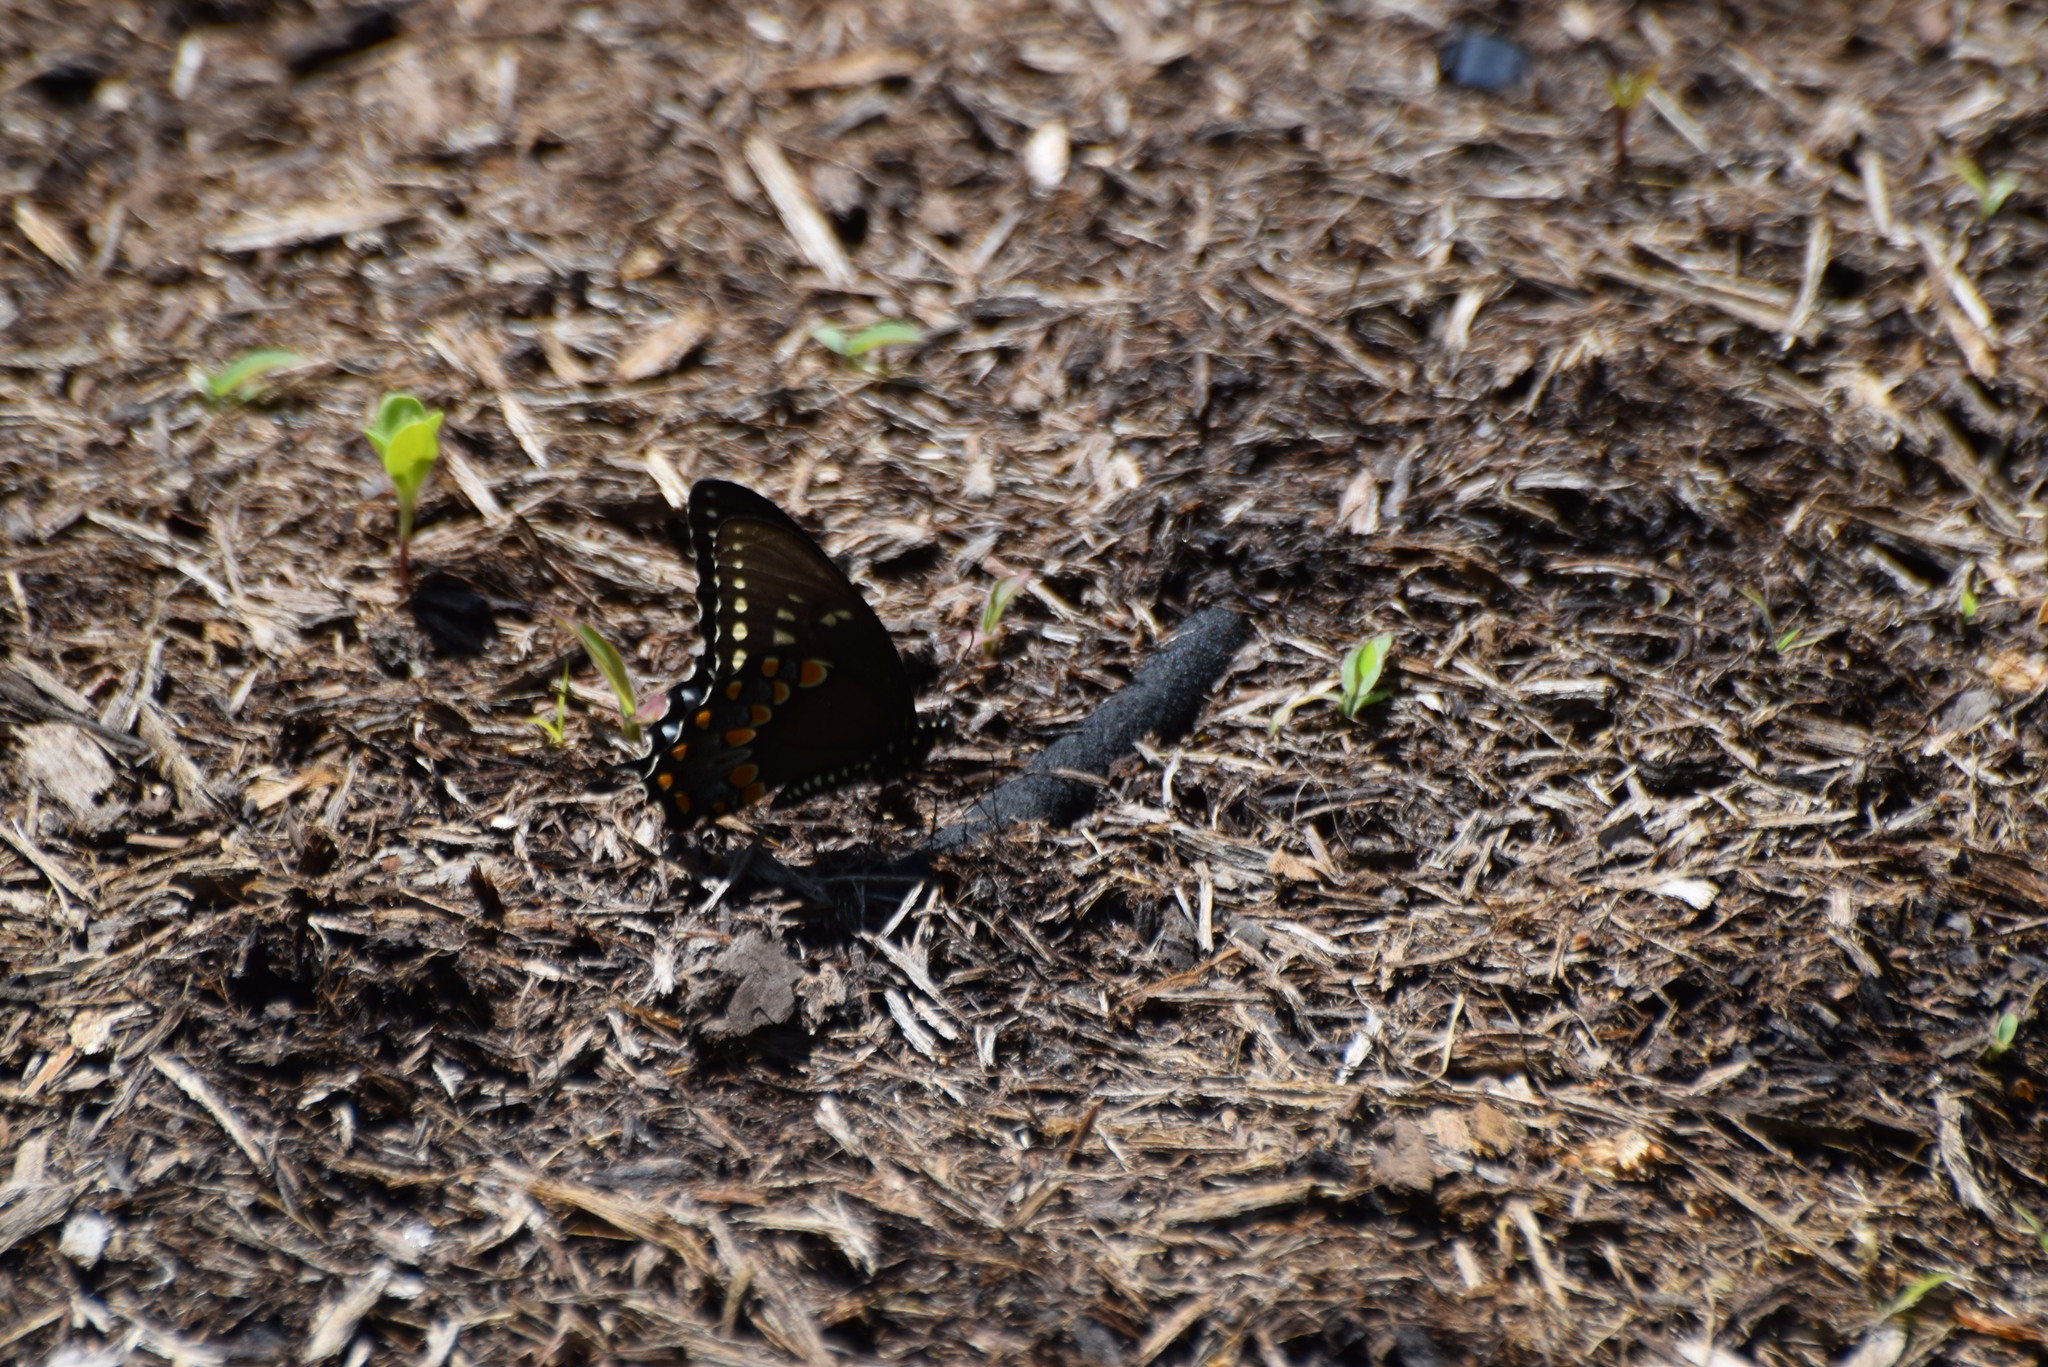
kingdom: Animalia
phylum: Arthropoda
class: Insecta
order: Lepidoptera
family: Papilionidae
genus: Papilio
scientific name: Papilio troilus
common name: Spicebush swallowtail
